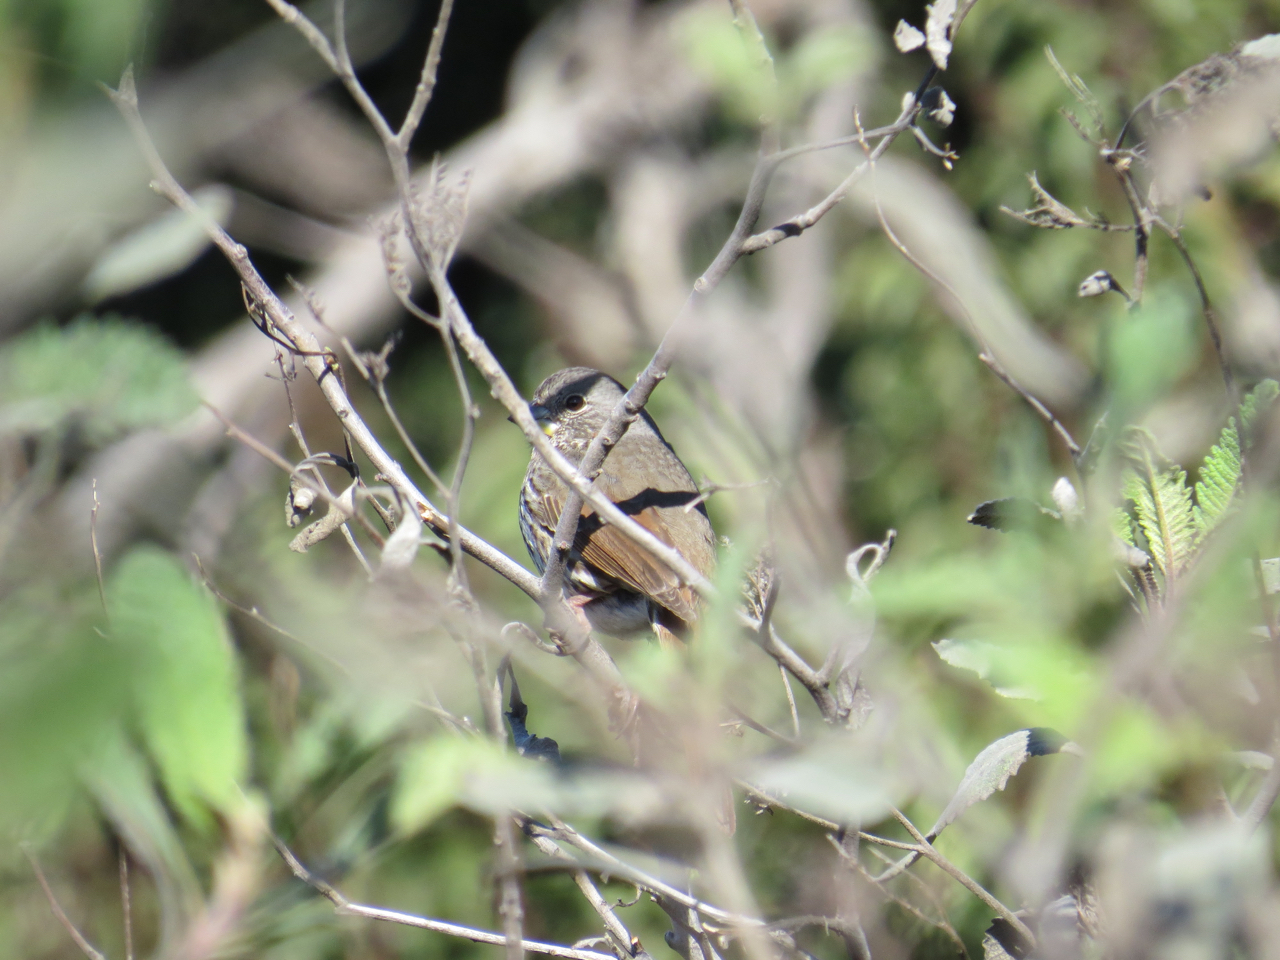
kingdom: Animalia
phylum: Chordata
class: Aves
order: Passeriformes
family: Passerellidae
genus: Passerella
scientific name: Passerella iliaca
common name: Fox sparrow
